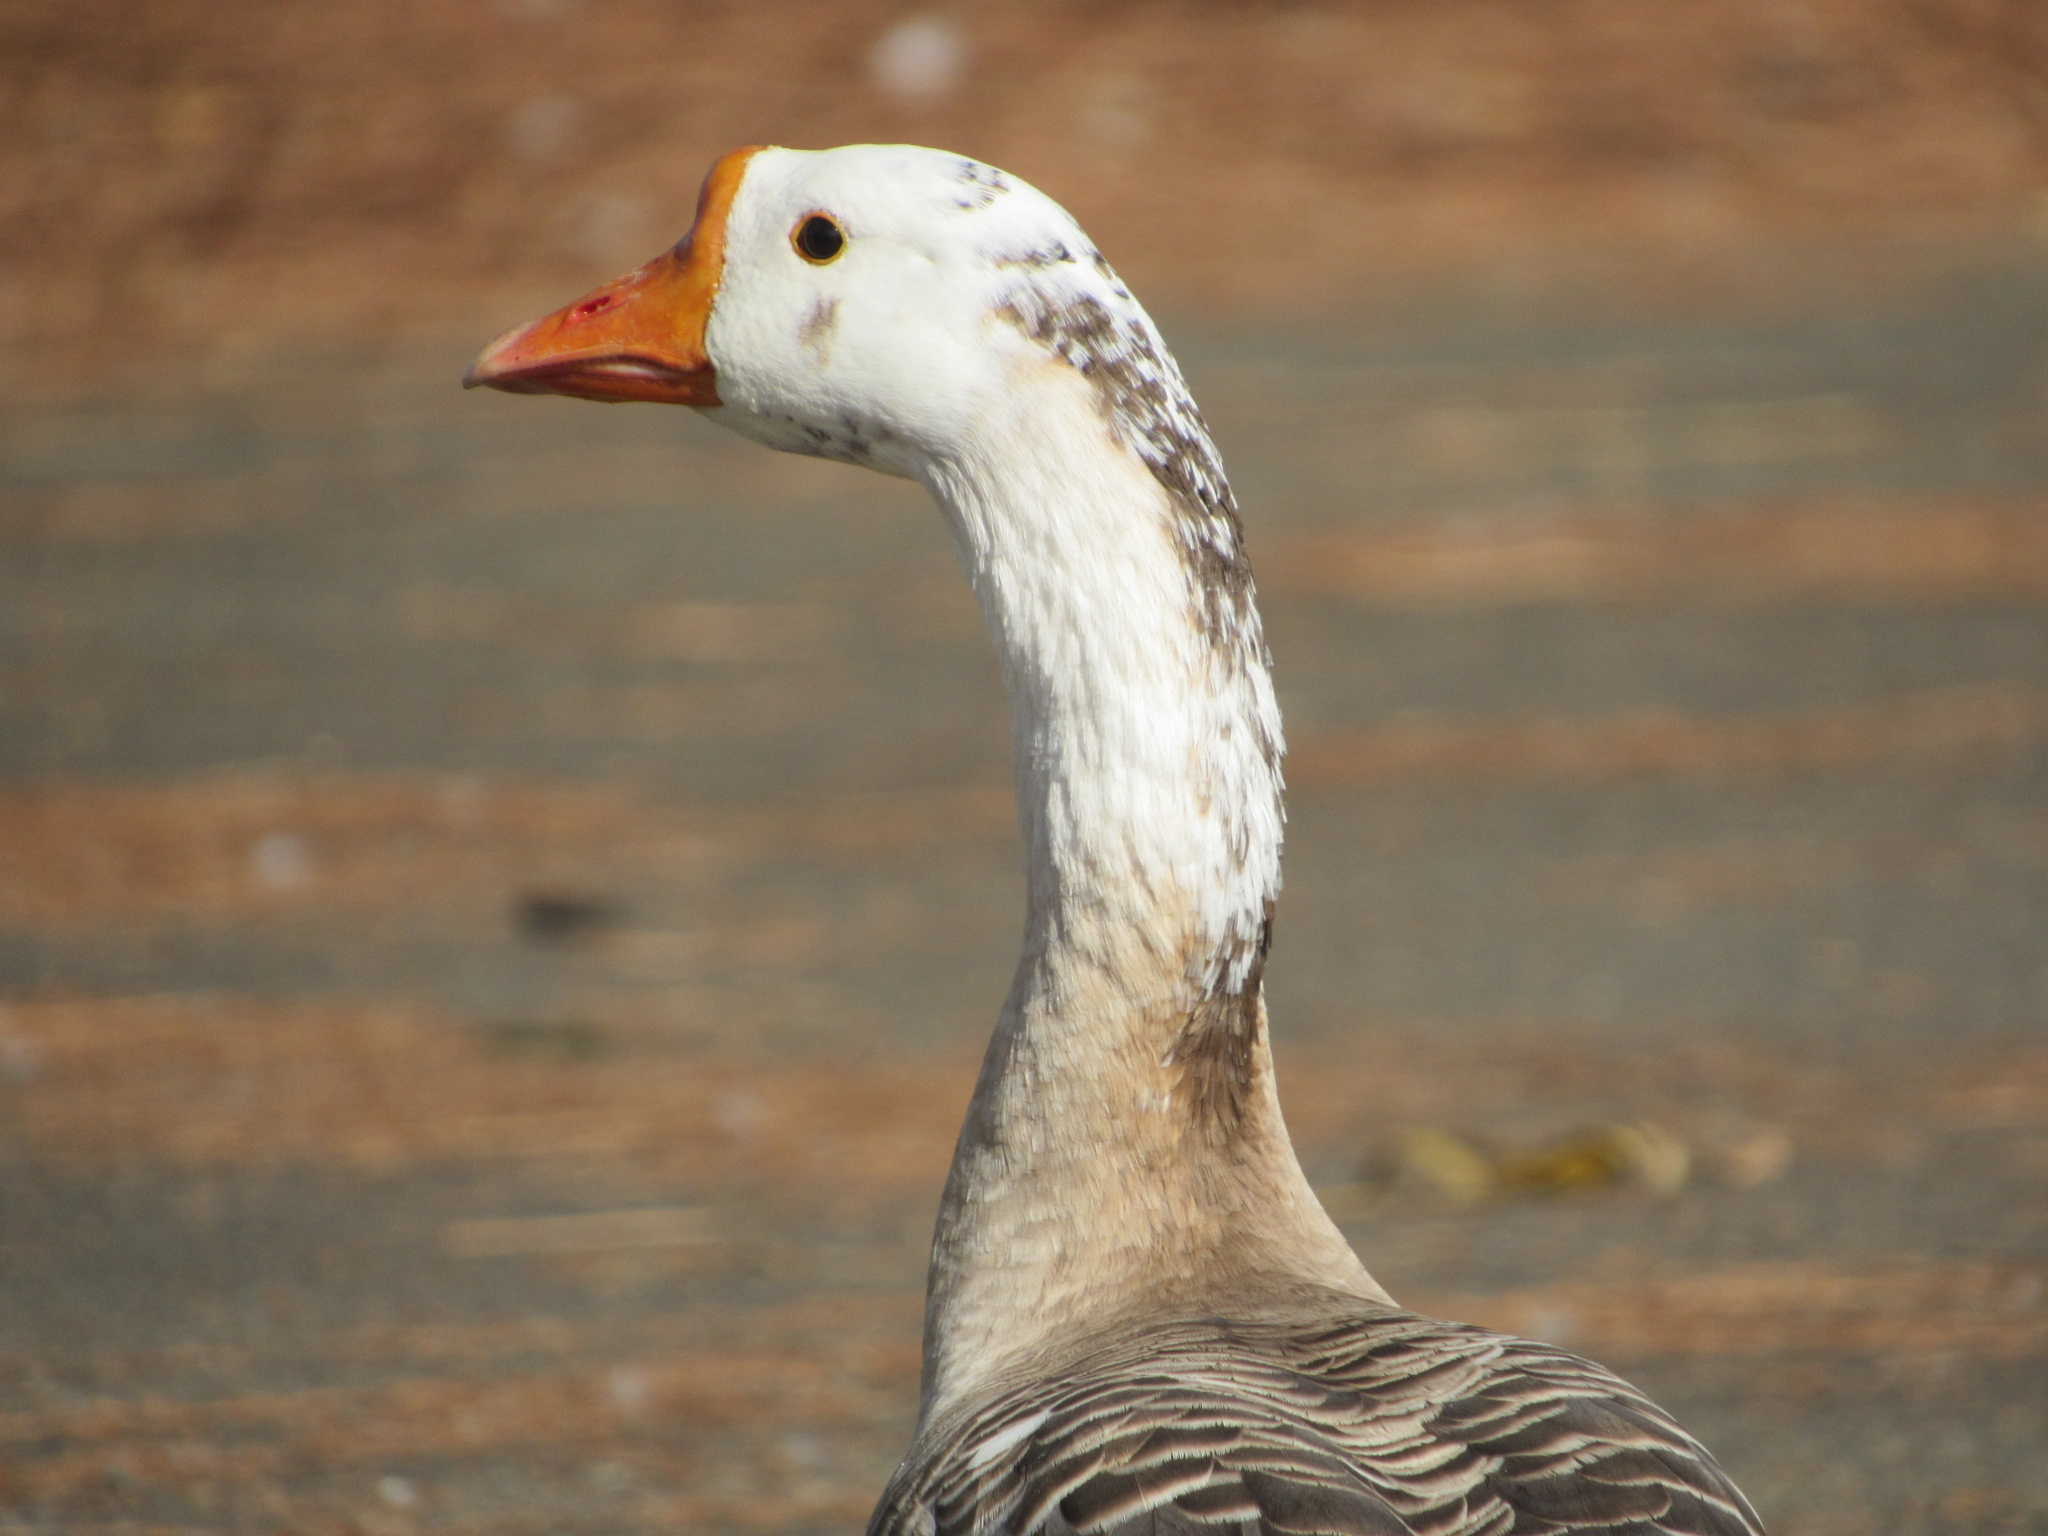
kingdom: Animalia
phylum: Chordata
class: Aves
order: Anseriformes
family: Anatidae
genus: Anser
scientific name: Anser cygnoides
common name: Swan goose
